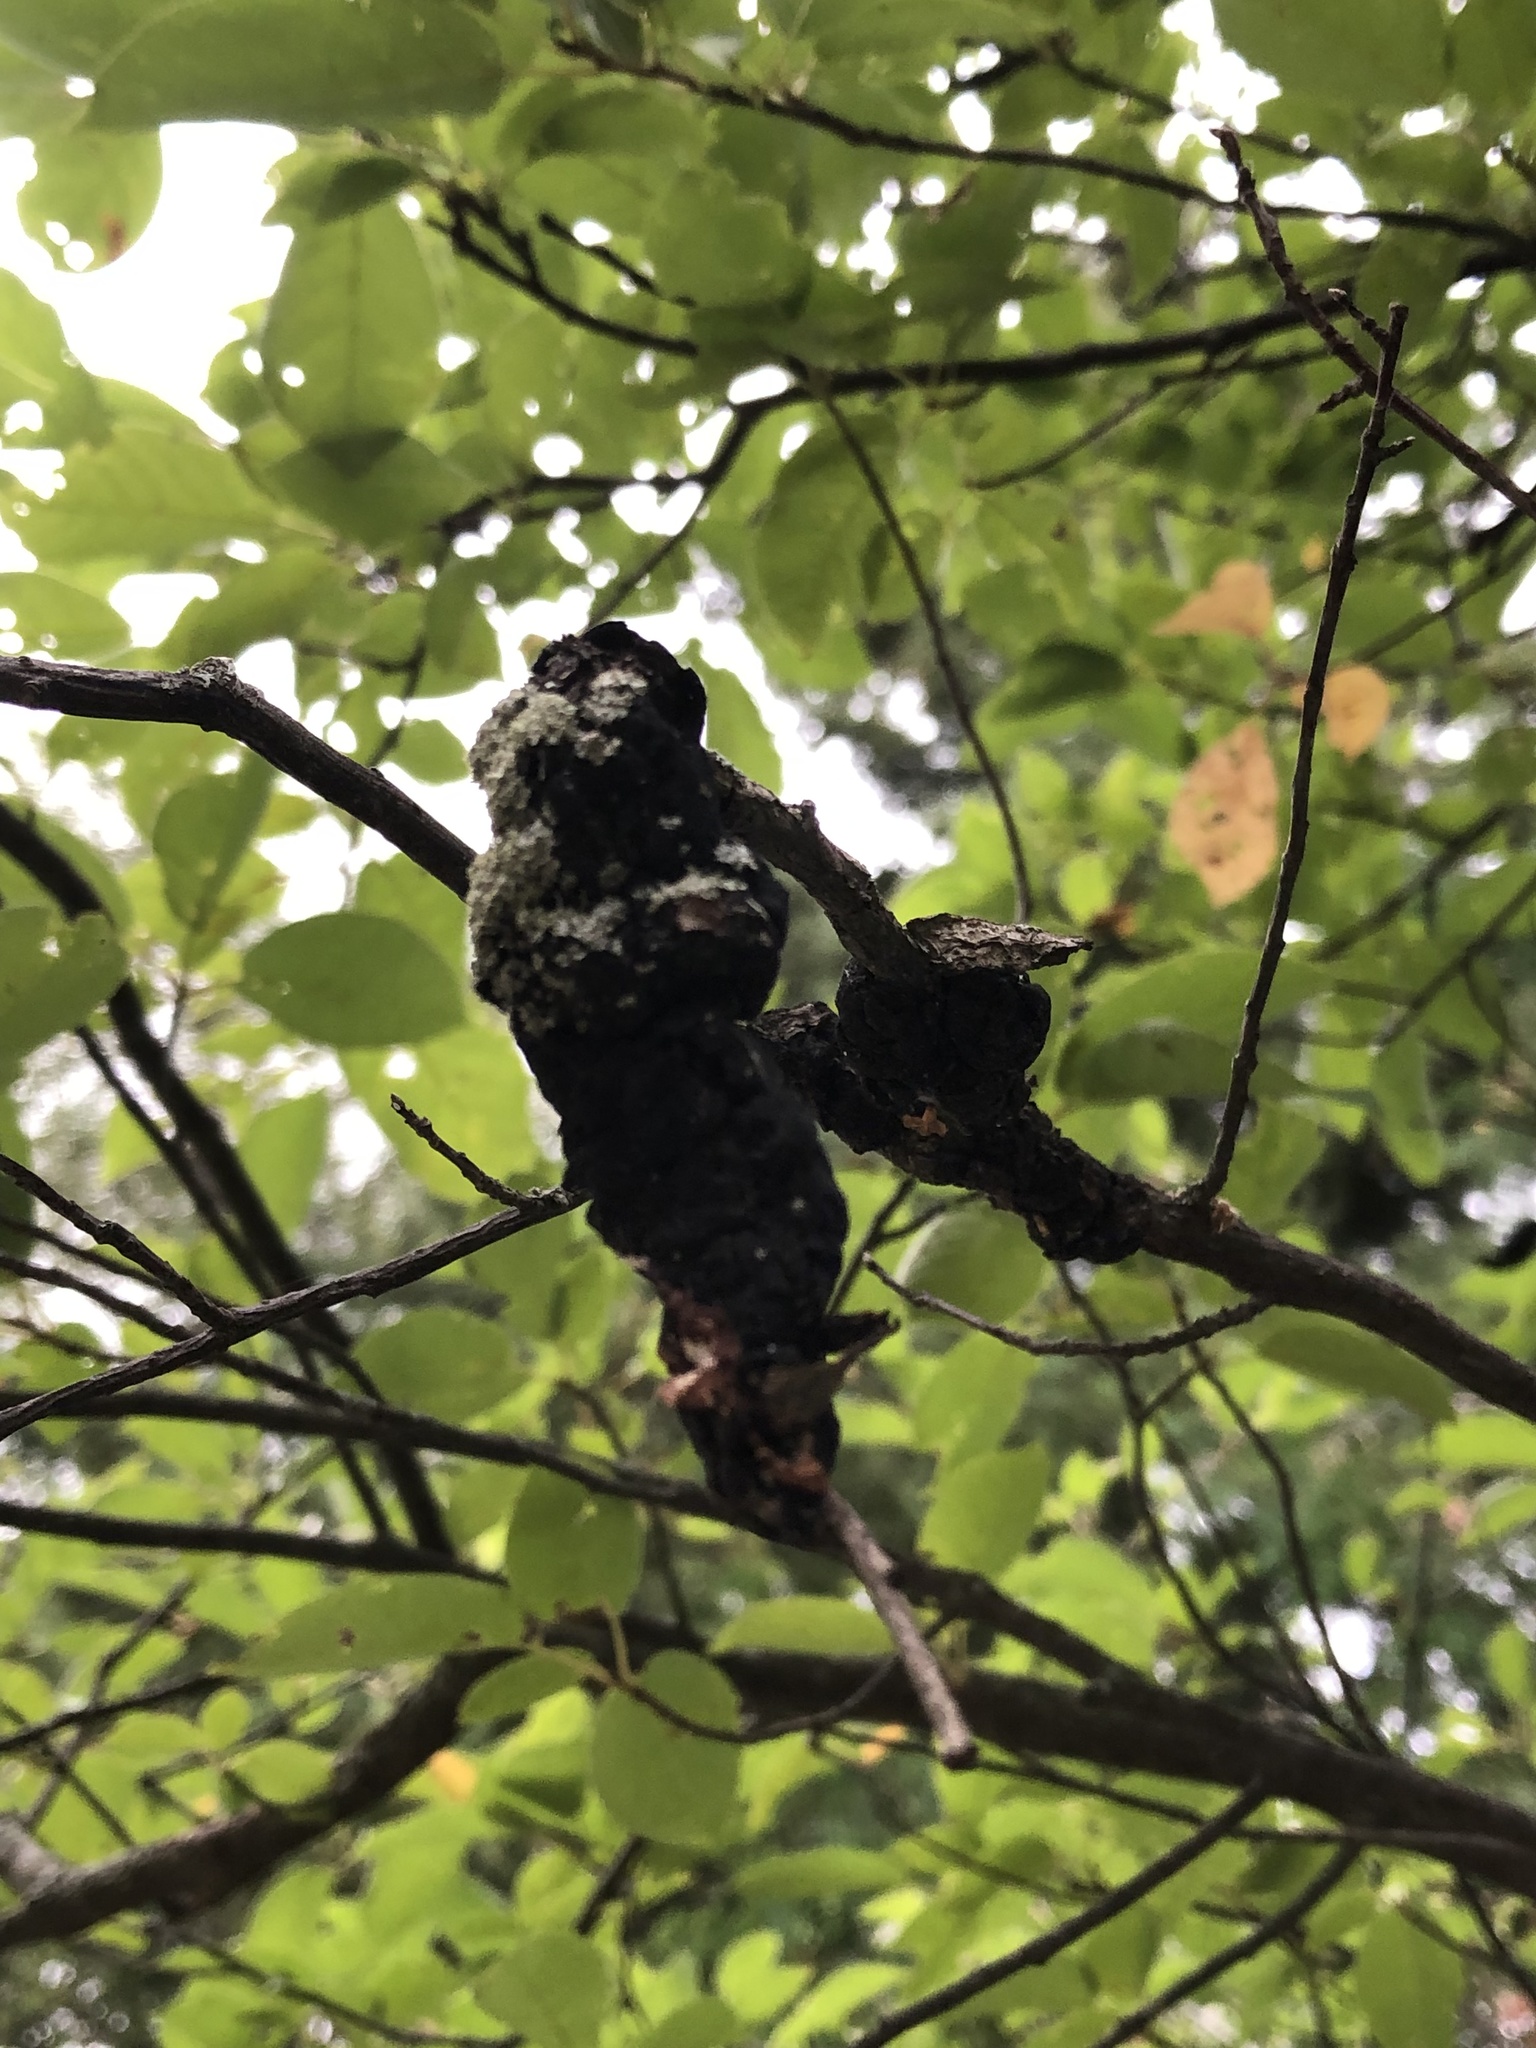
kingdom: Fungi
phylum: Ascomycota
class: Dothideomycetes
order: Venturiales
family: Venturiaceae
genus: Apiosporina
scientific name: Apiosporina morbosa
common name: Black knot
